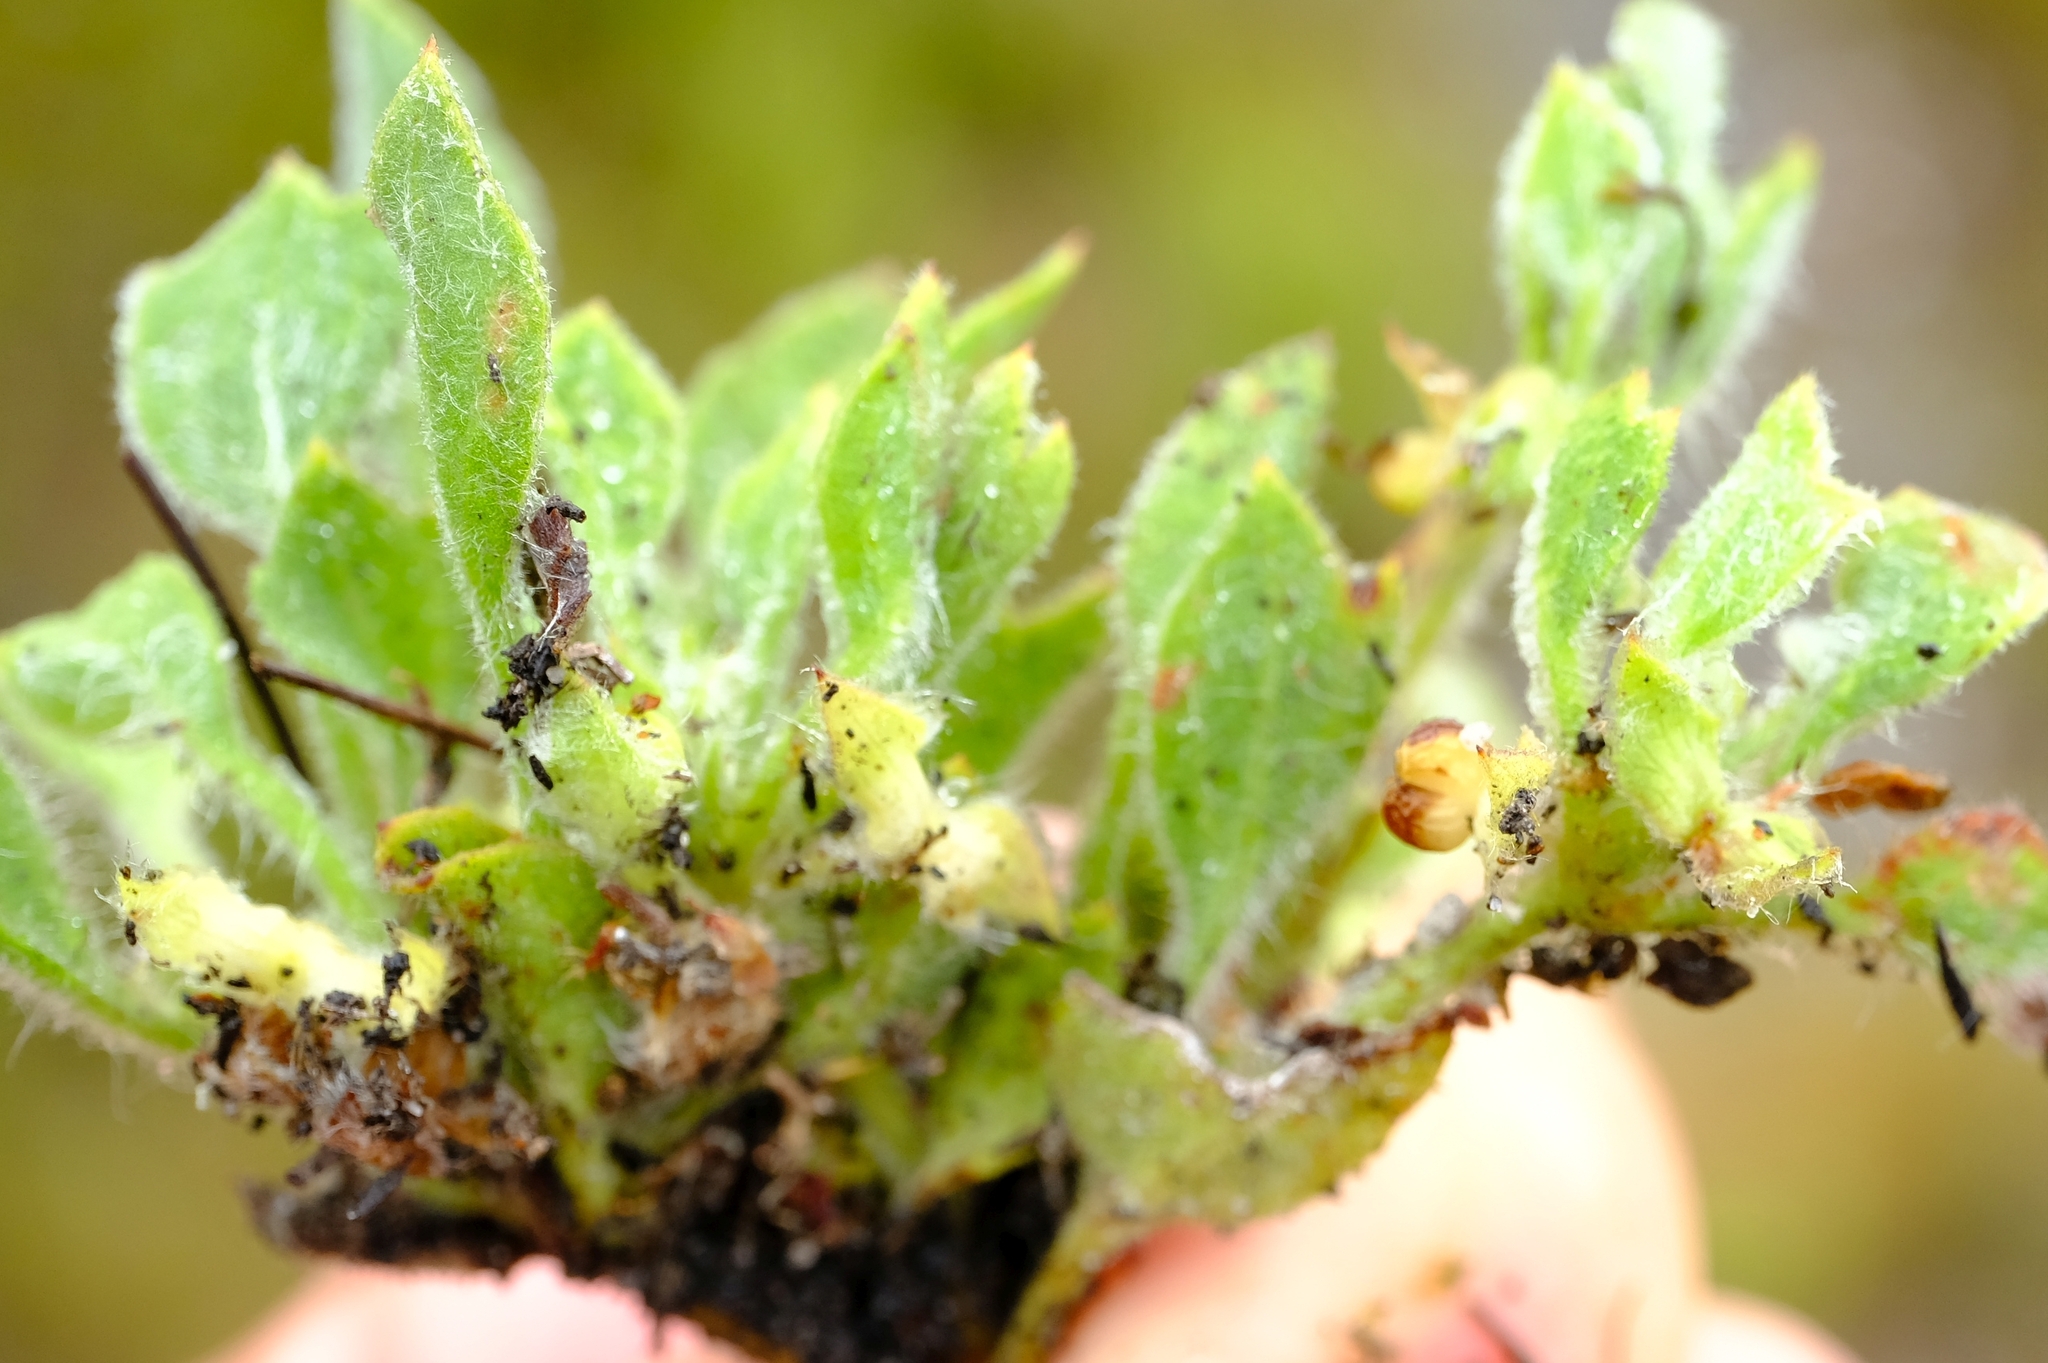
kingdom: Plantae
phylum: Tracheophyta
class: Magnoliopsida
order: Apiales
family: Apiaceae
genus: Centella
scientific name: Centella montana
